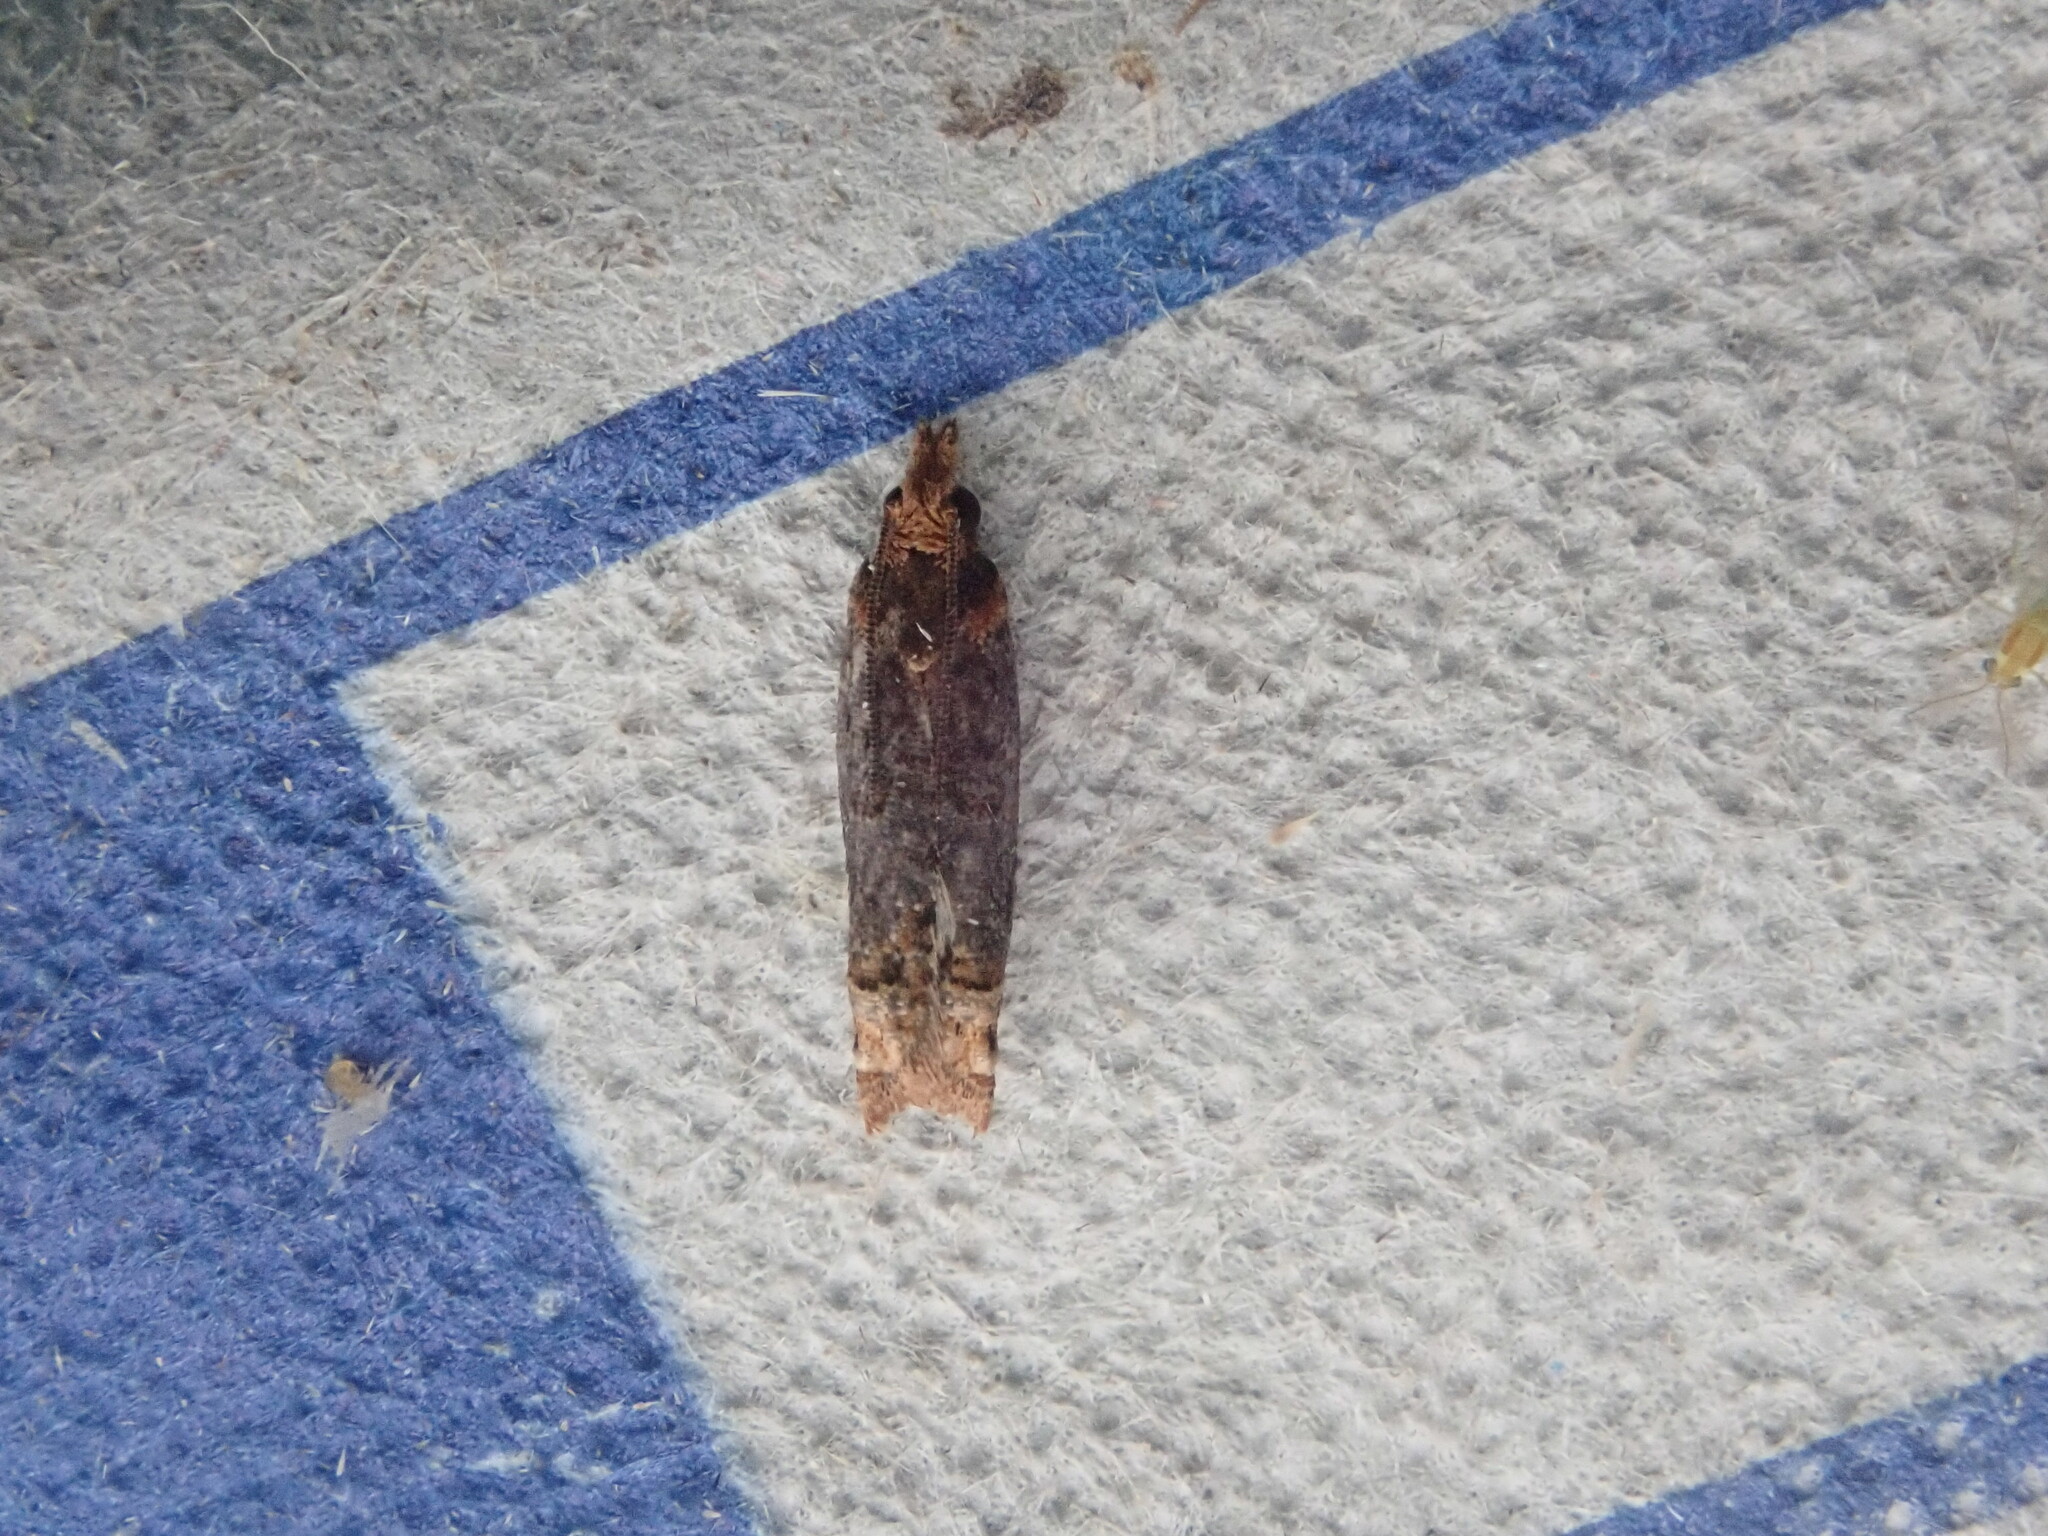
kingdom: Animalia
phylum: Arthropoda
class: Insecta
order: Lepidoptera
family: Tortricidae
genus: Eucosma
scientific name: Eucosma ochroterminana
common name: Buff-tipped eucosma moth
